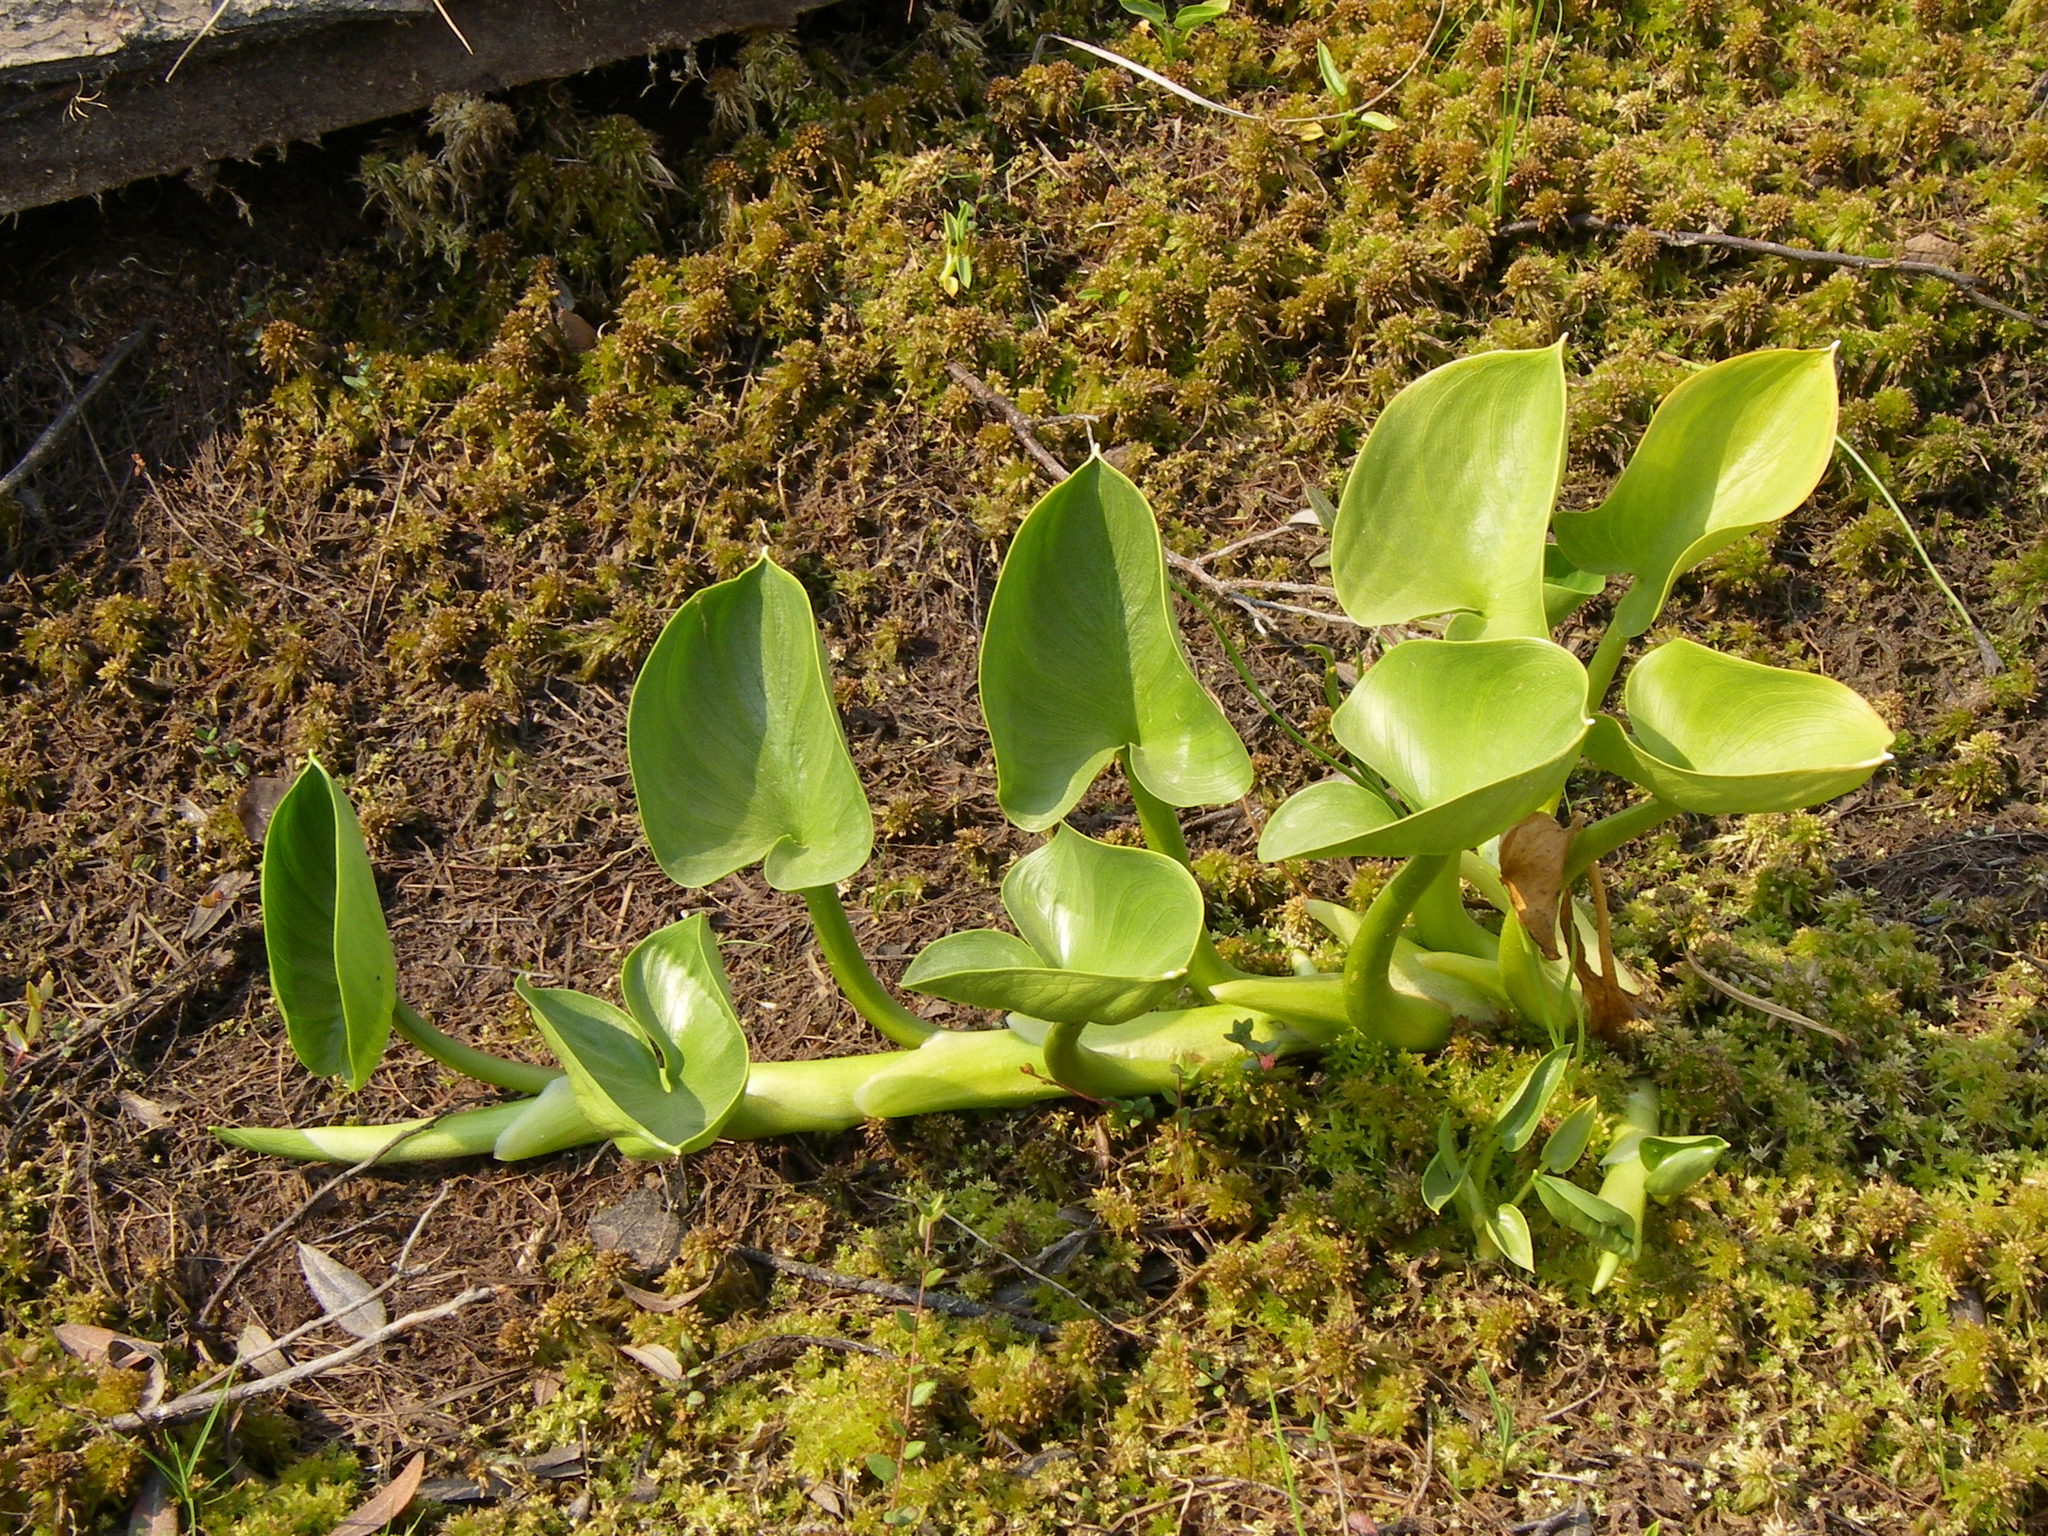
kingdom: Plantae
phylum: Tracheophyta
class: Liliopsida
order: Alismatales
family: Araceae
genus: Calla
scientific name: Calla palustris
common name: Bog arum
